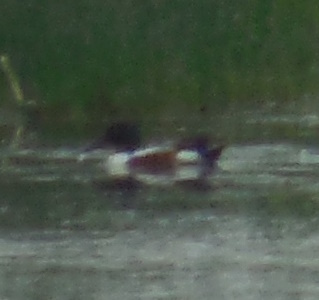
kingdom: Animalia
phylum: Chordata
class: Aves
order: Anseriformes
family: Anatidae
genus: Spatula
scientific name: Spatula clypeata
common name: Northern shoveler
